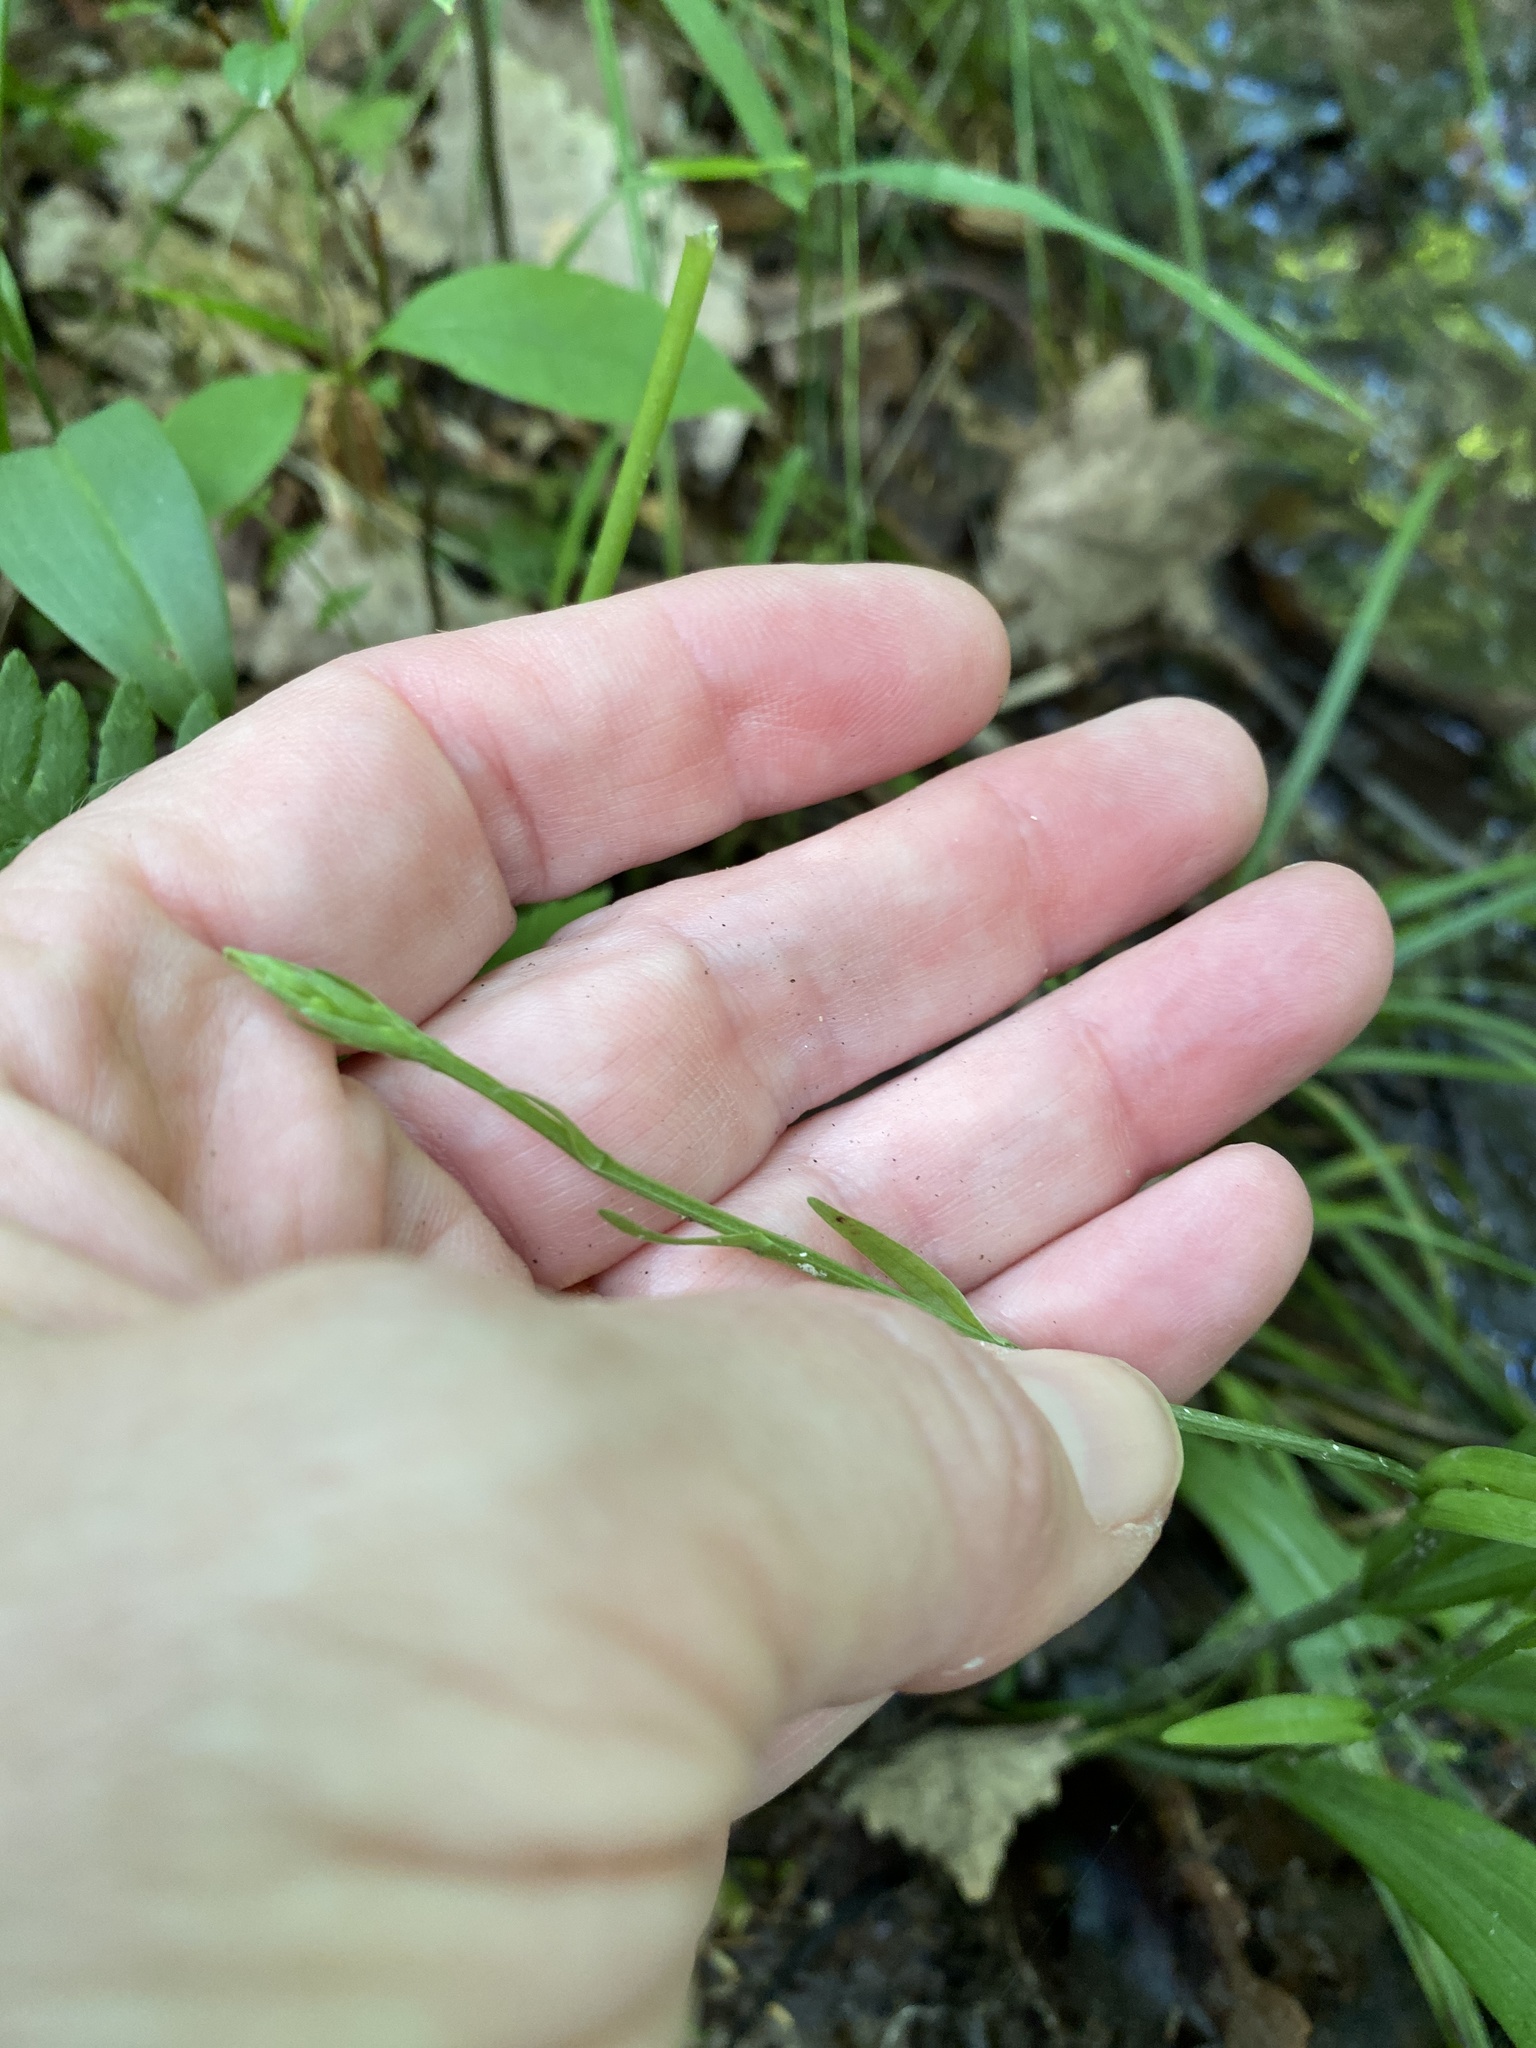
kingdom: Plantae
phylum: Tracheophyta
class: Liliopsida
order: Asparagales
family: Orchidaceae
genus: Platanthera
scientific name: Platanthera clavellata
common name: Club-spur orchid
